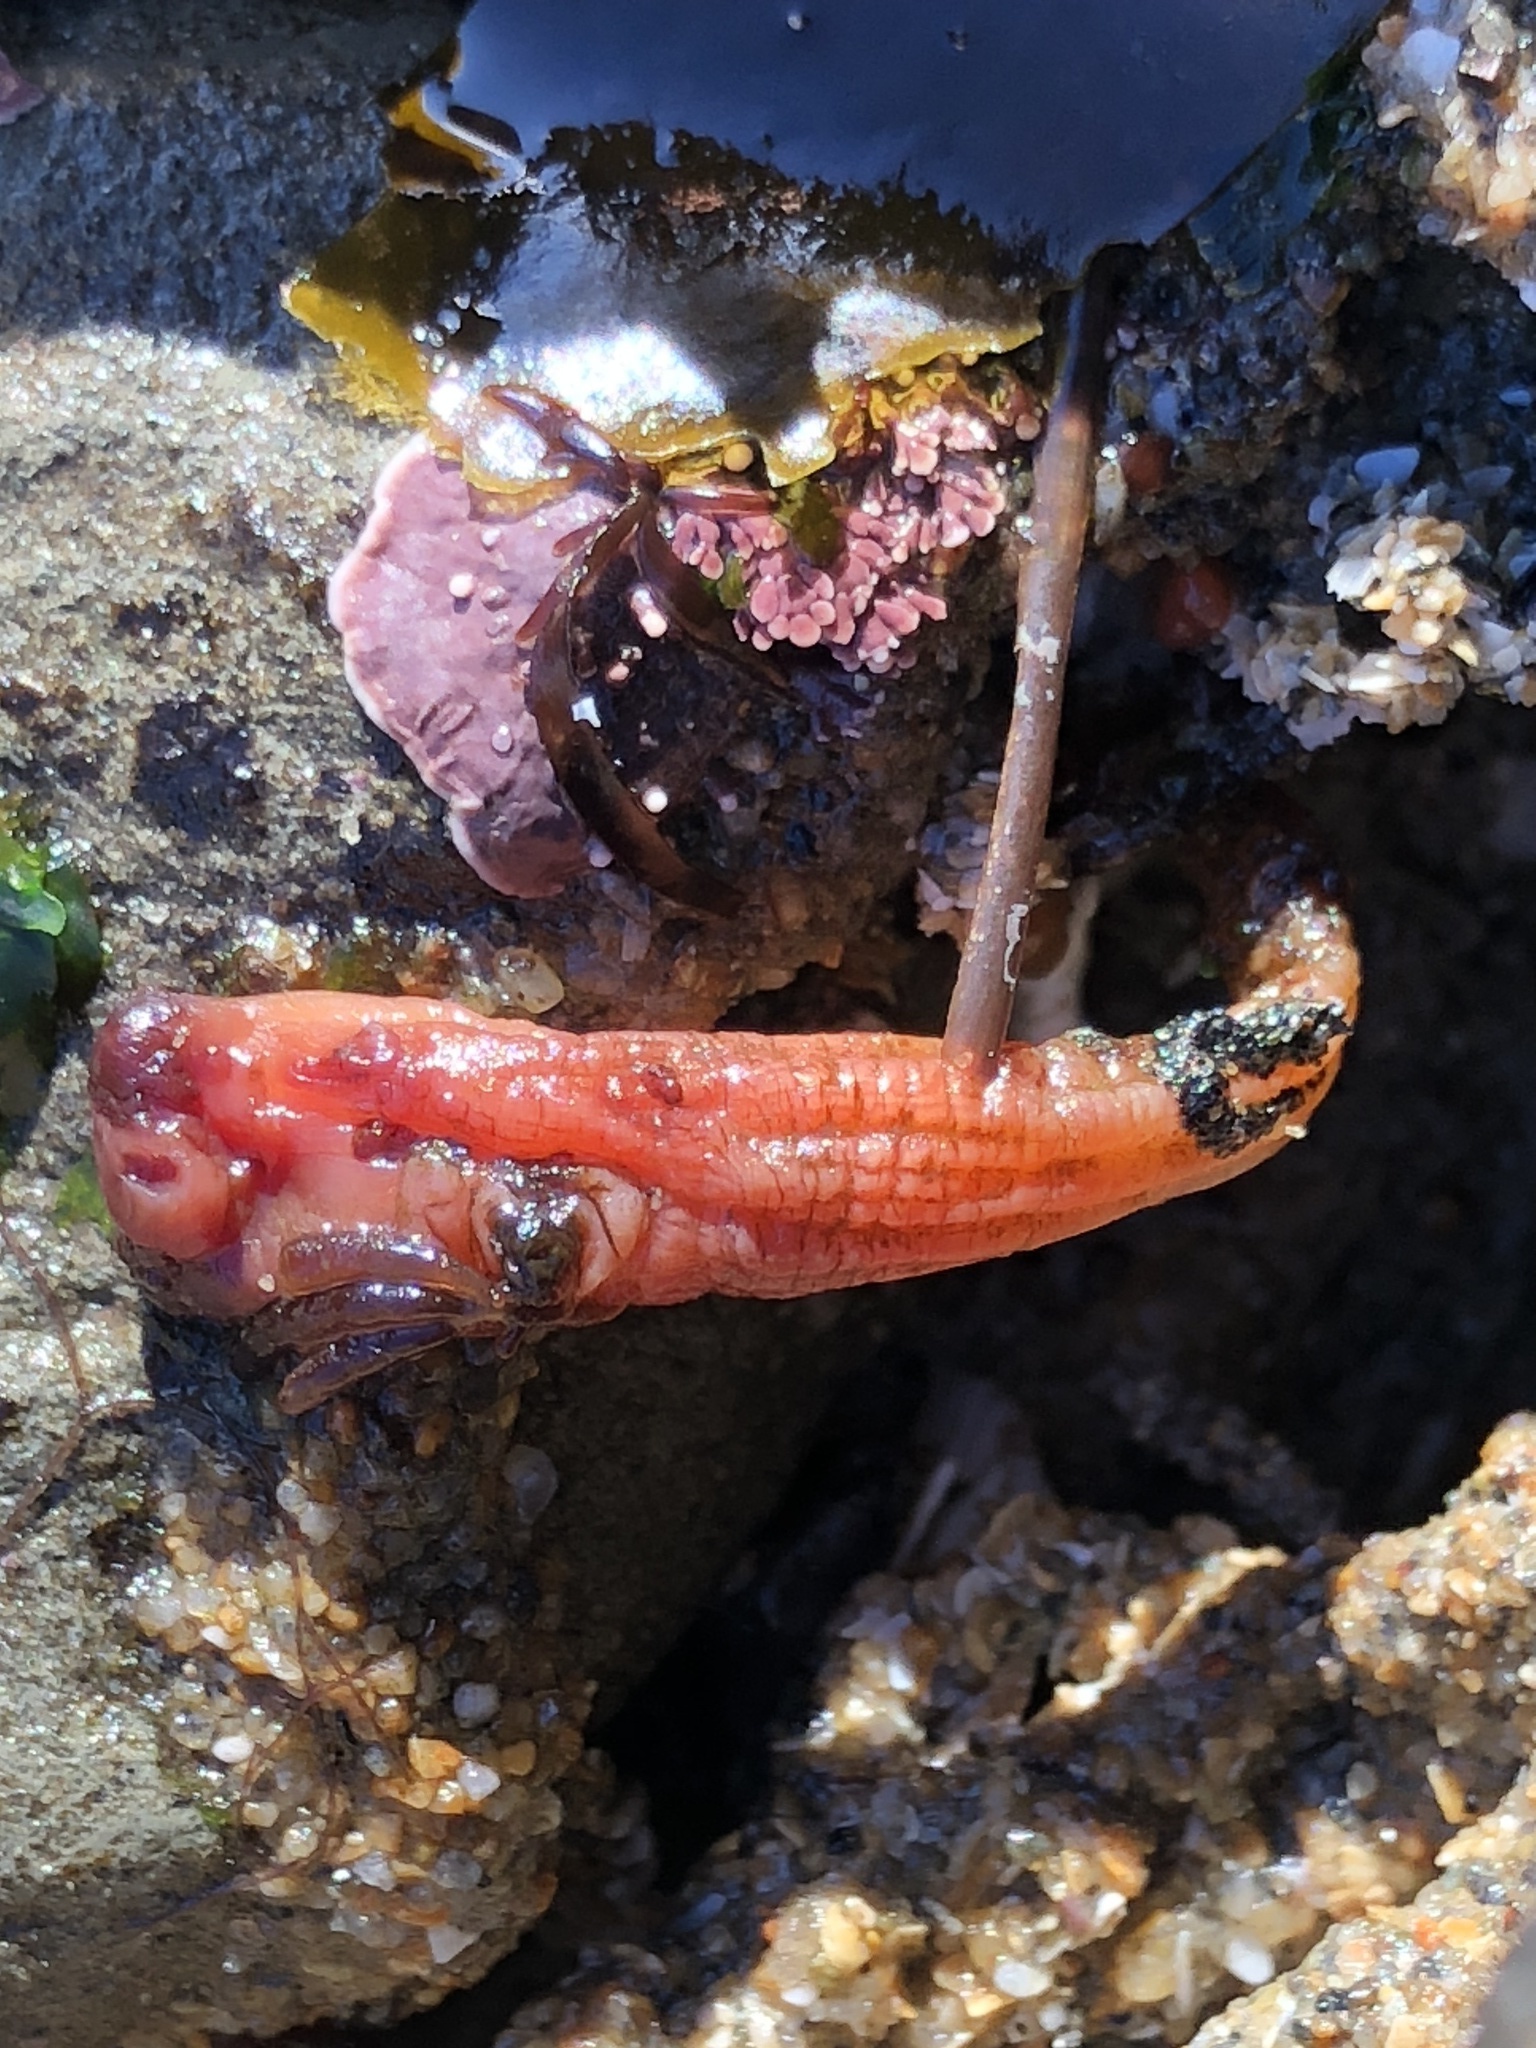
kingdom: Animalia
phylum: Chordata
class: Ascidiacea
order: Stolidobranchia
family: Styelidae
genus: Styela
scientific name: Styela montereyensis
